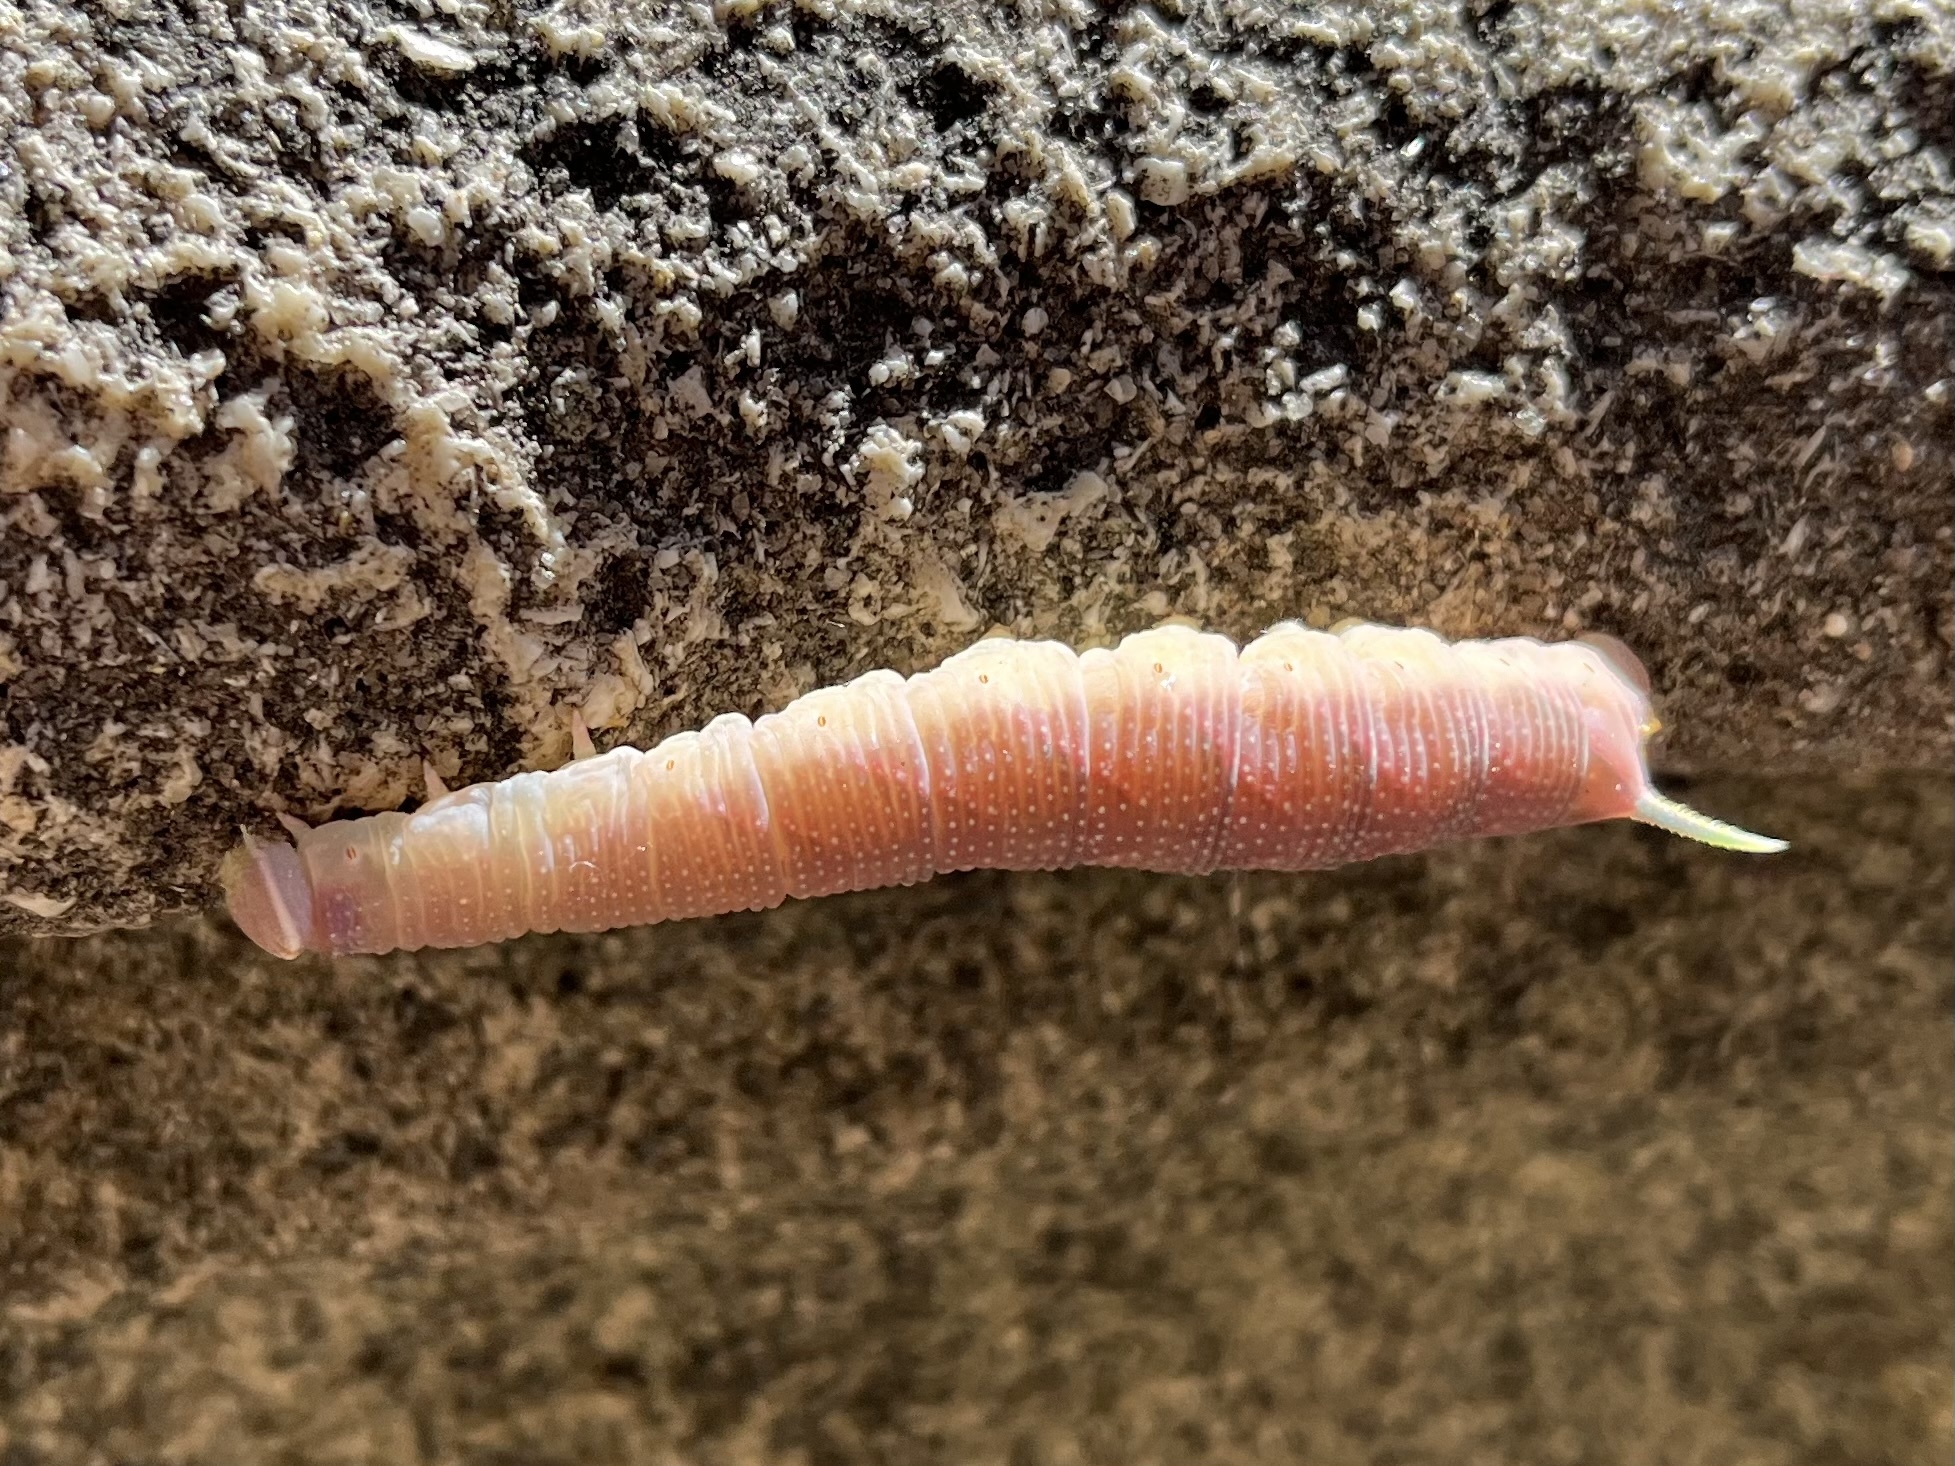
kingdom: Animalia
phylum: Arthropoda
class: Insecta
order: Lepidoptera
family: Sphingidae
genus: Mimas
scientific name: Mimas tiliae
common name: Lime hawk-moth
